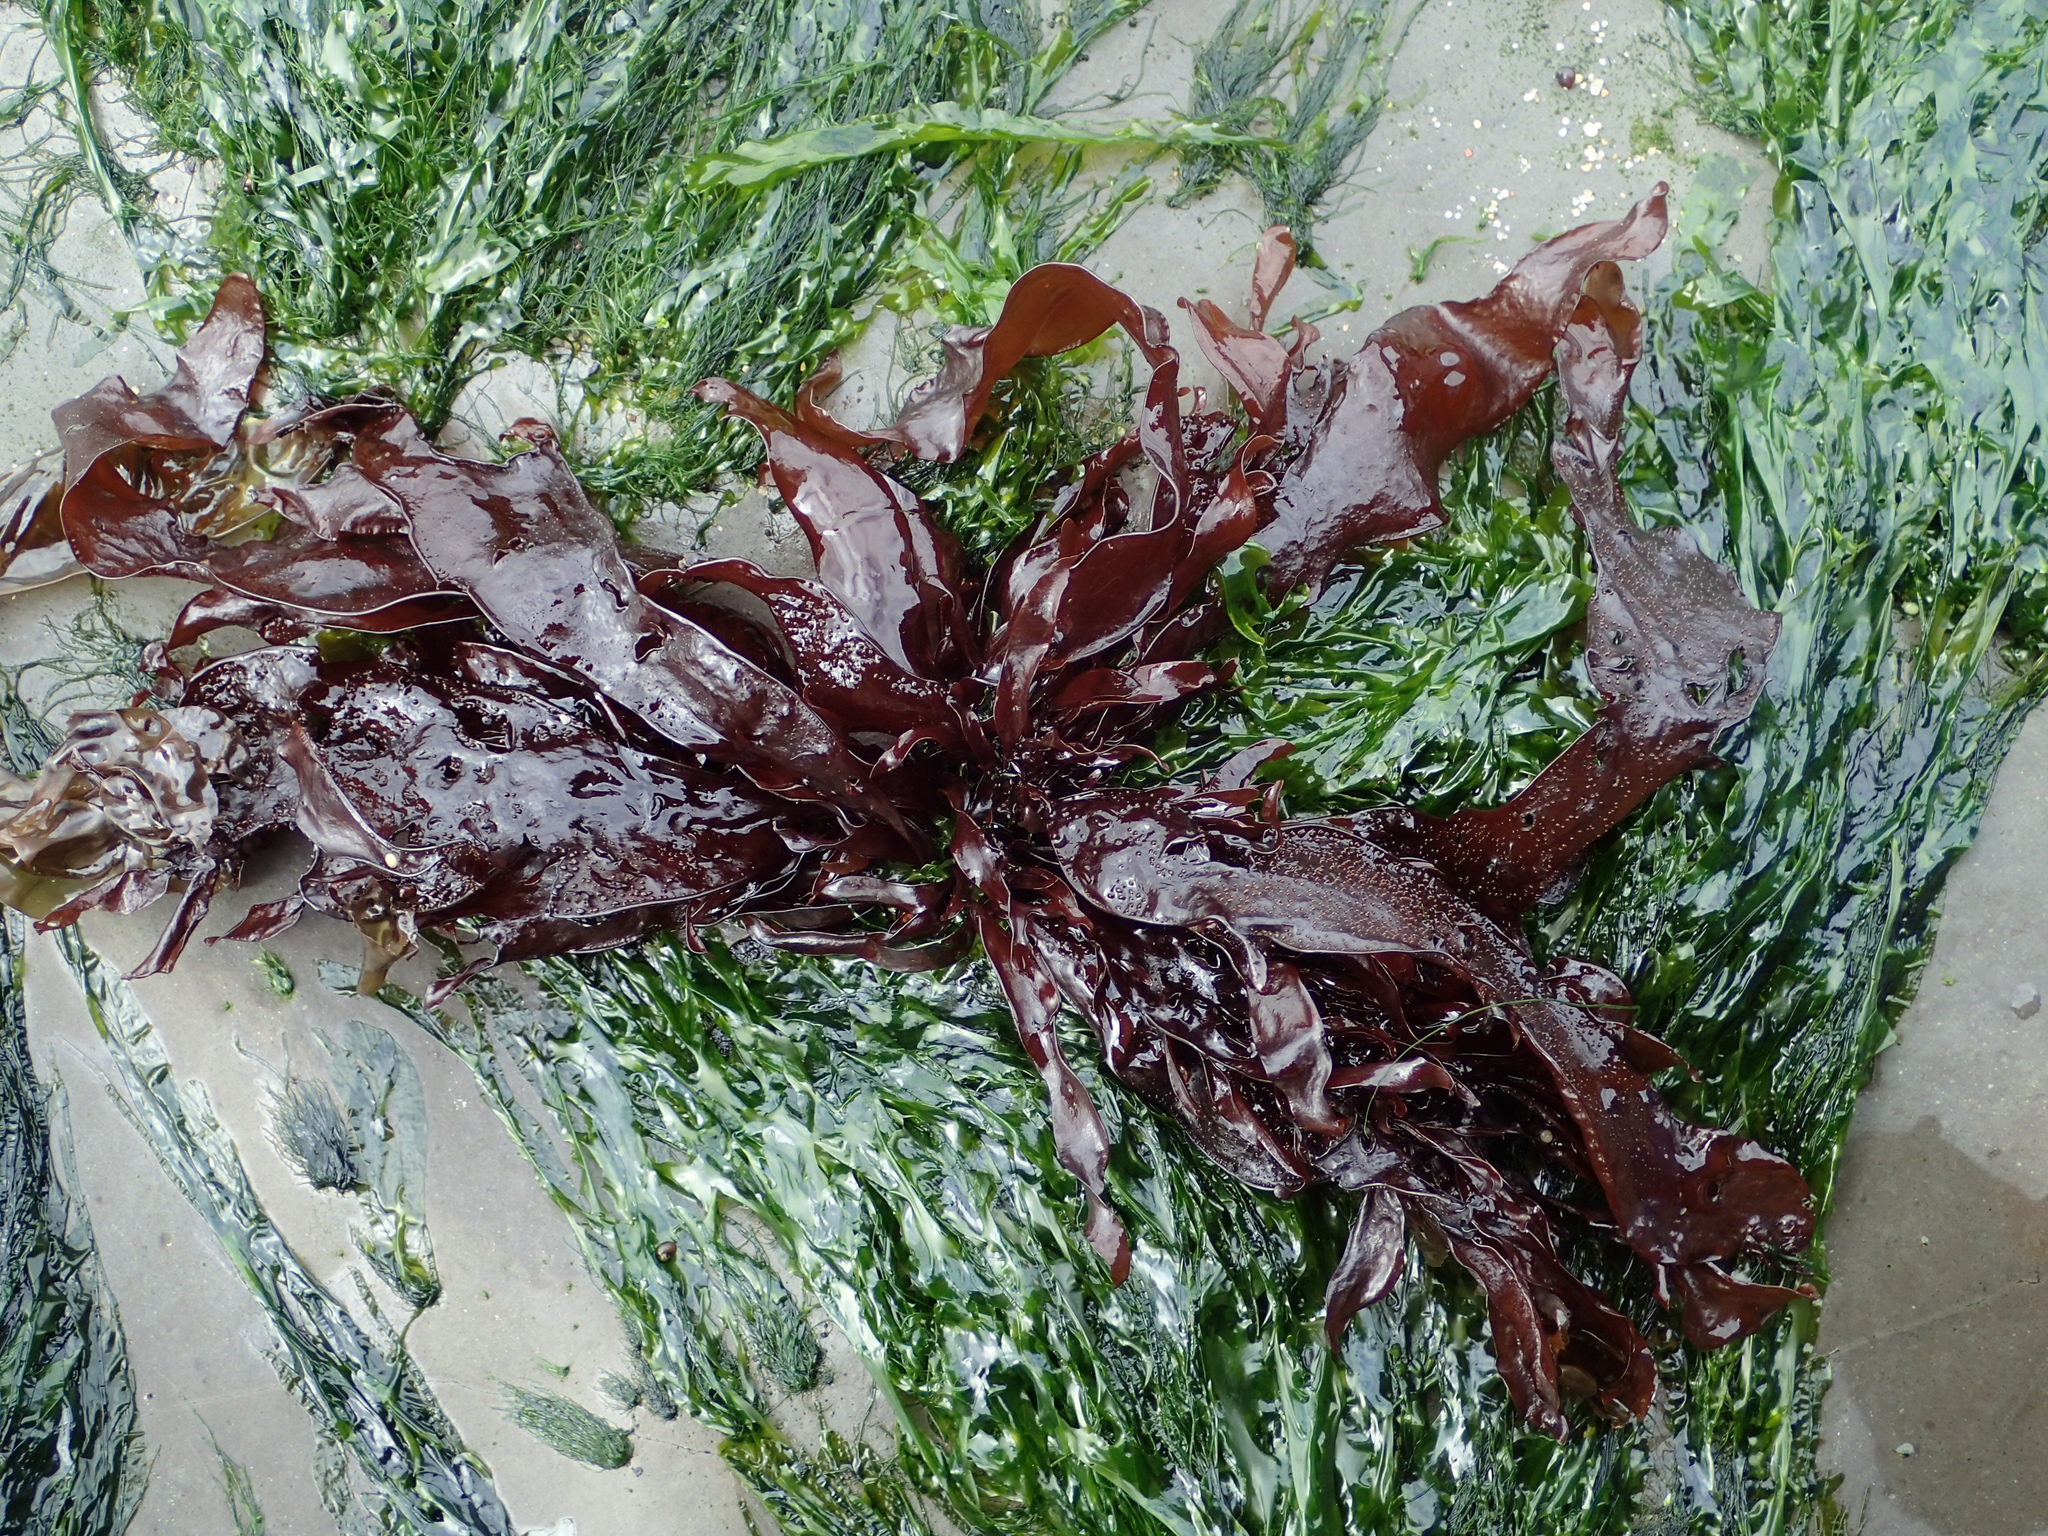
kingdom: Plantae
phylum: Rhodophyta
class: Florideophyceae
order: Gigartinales
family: Phyllophoraceae
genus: Mastocarpus
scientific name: Mastocarpus papillatus
